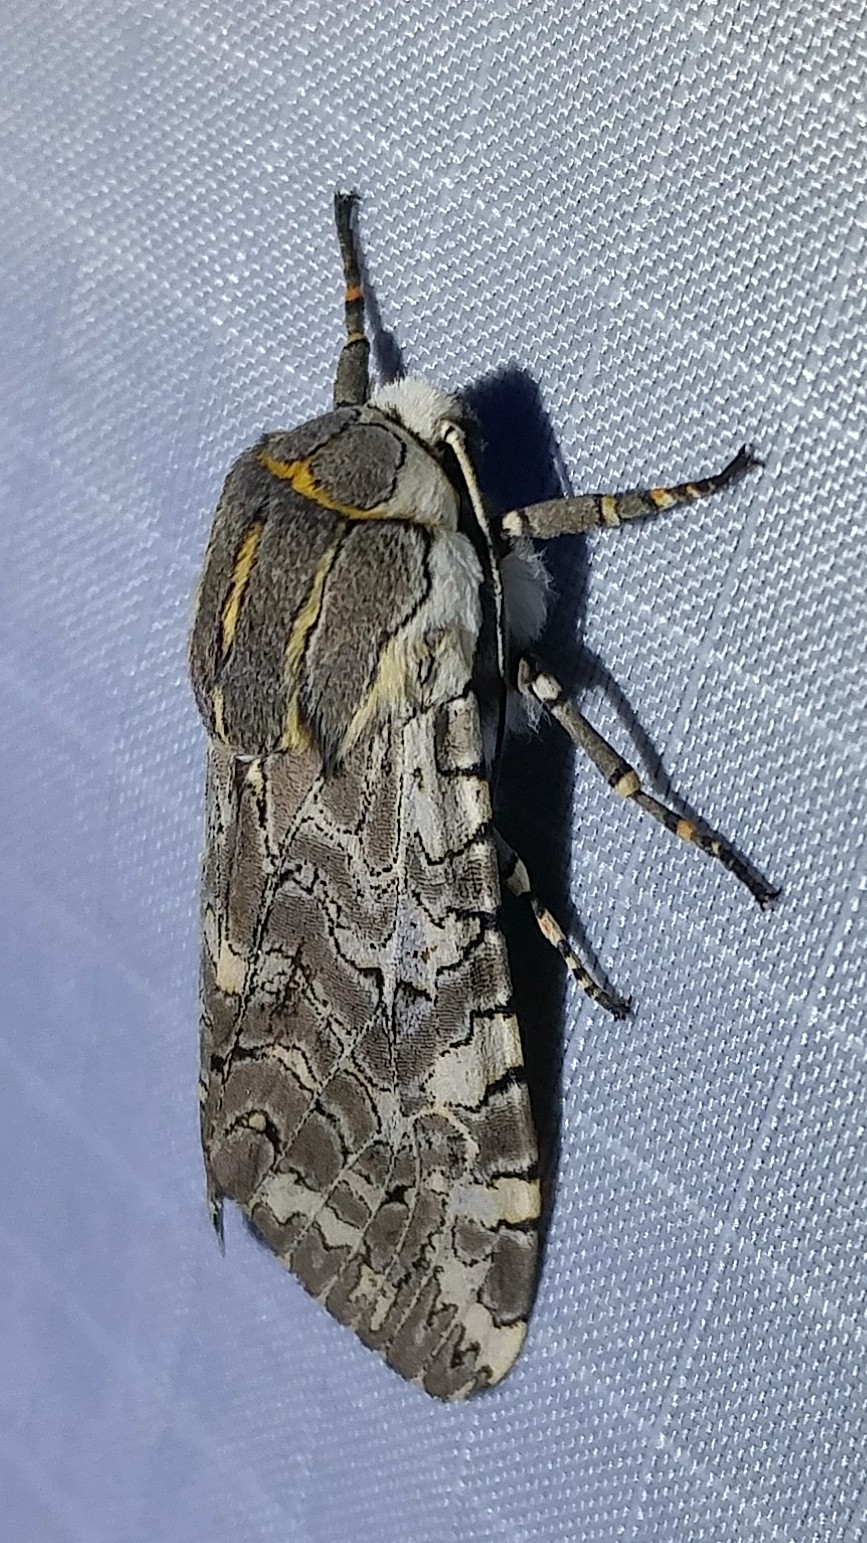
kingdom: Animalia
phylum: Arthropoda
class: Insecta
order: Lepidoptera
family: Erebidae
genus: Arachnis
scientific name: Arachnis picta
